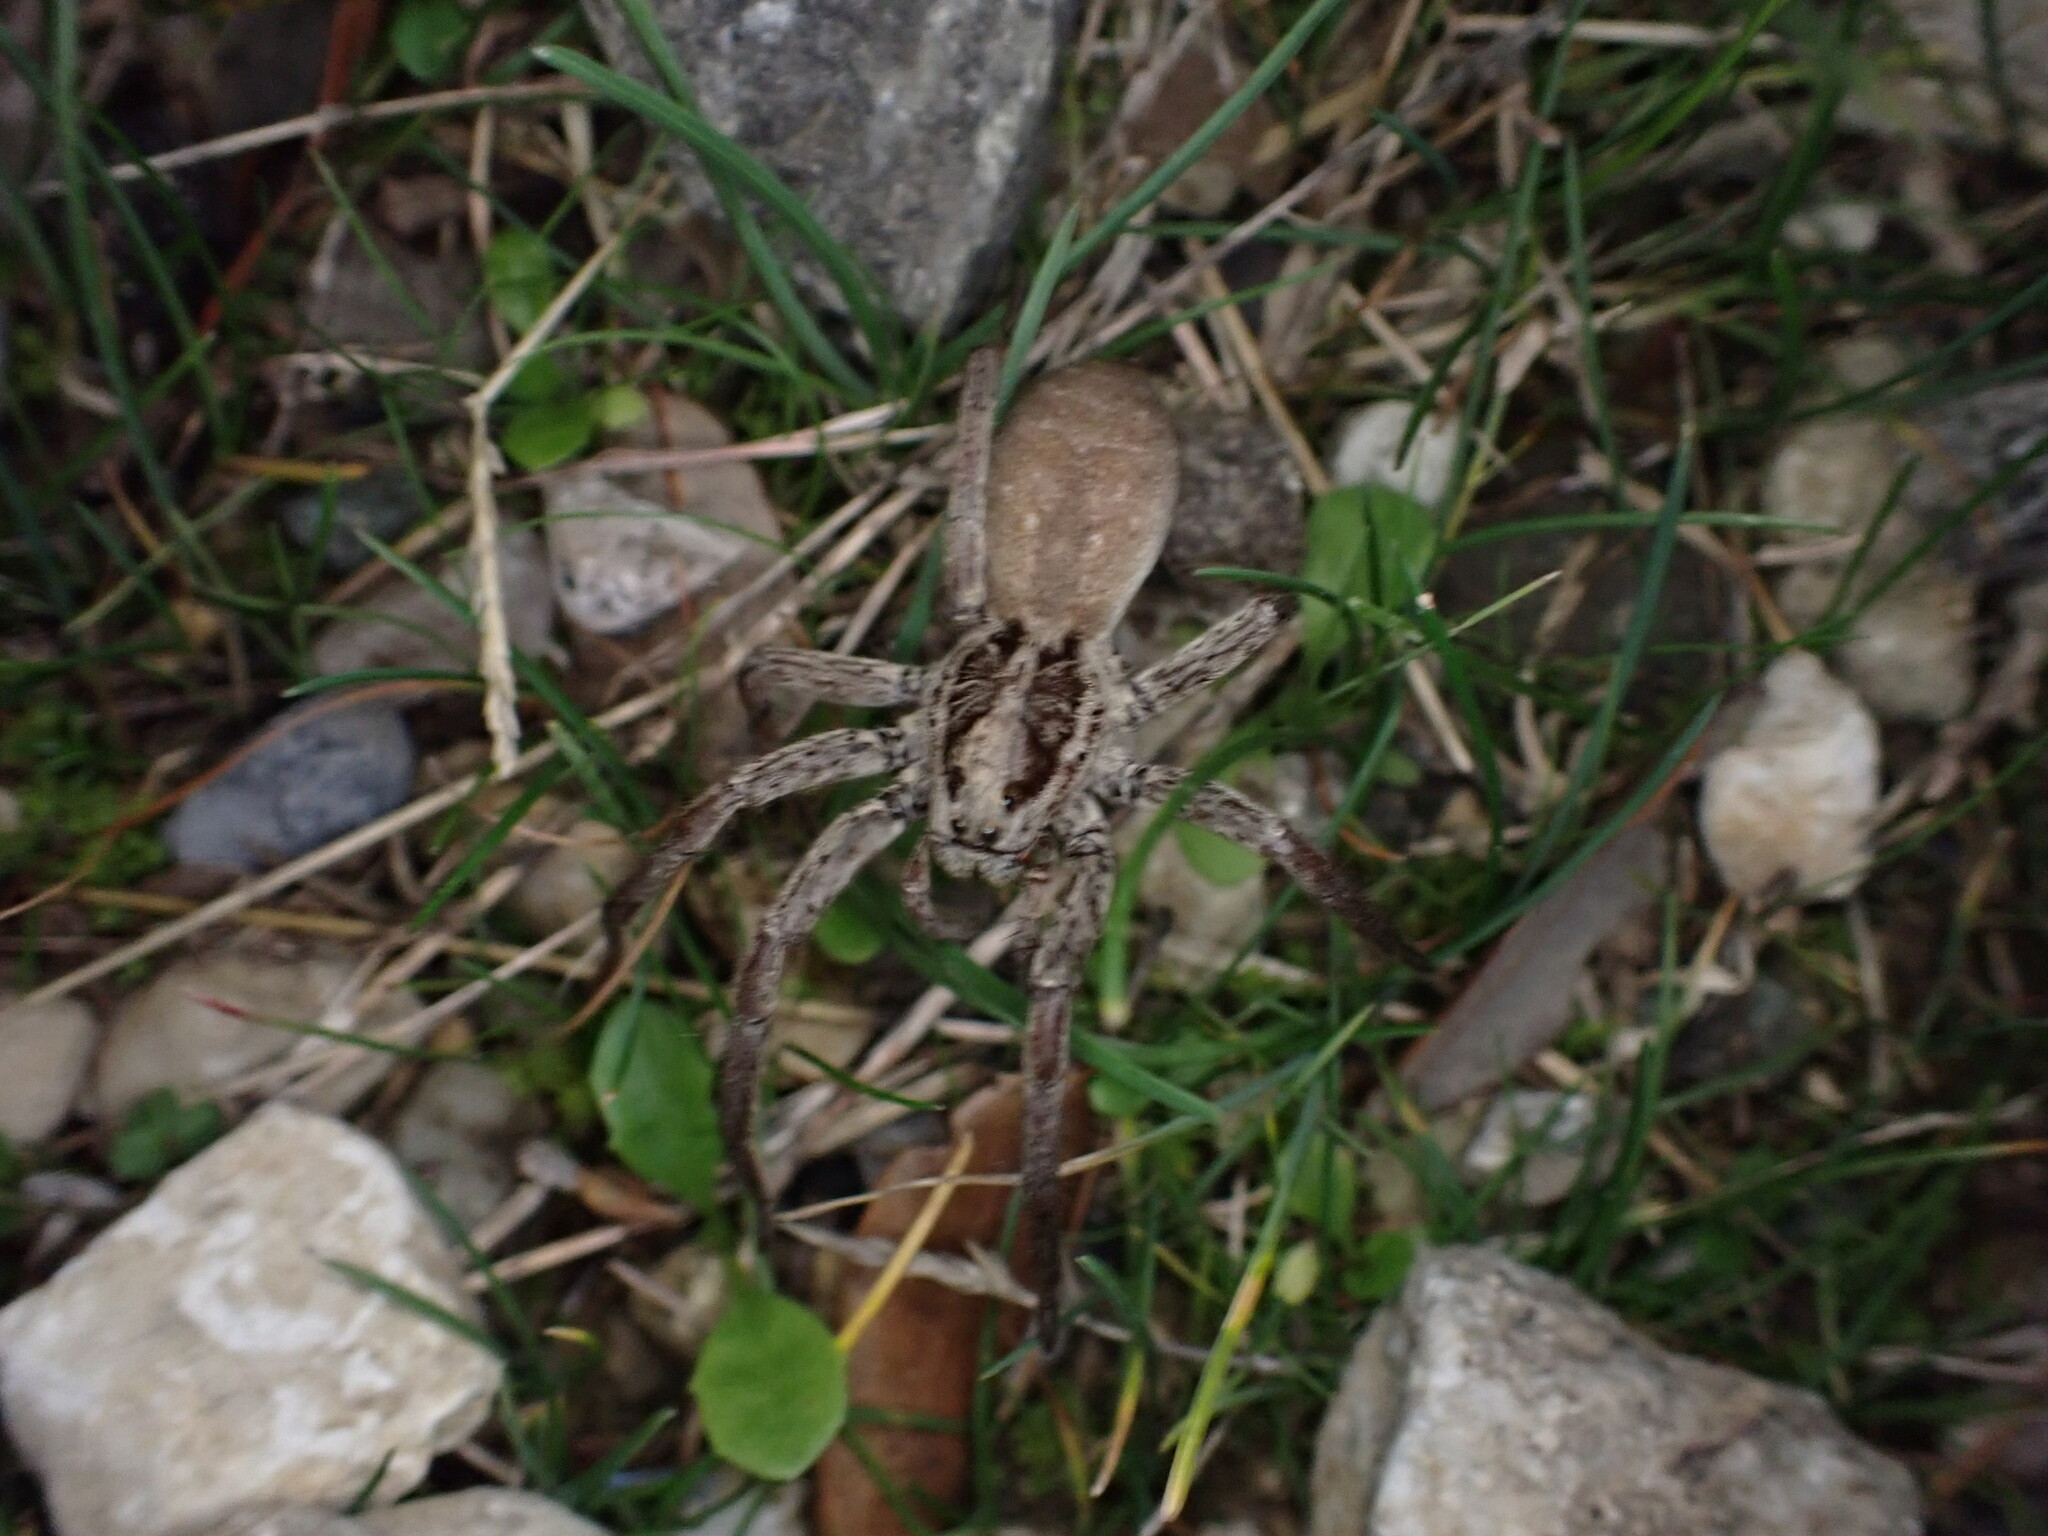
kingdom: Animalia
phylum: Arthropoda
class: Arachnida
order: Araneae
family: Lycosidae
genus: Hogna
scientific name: Hogna radiata
